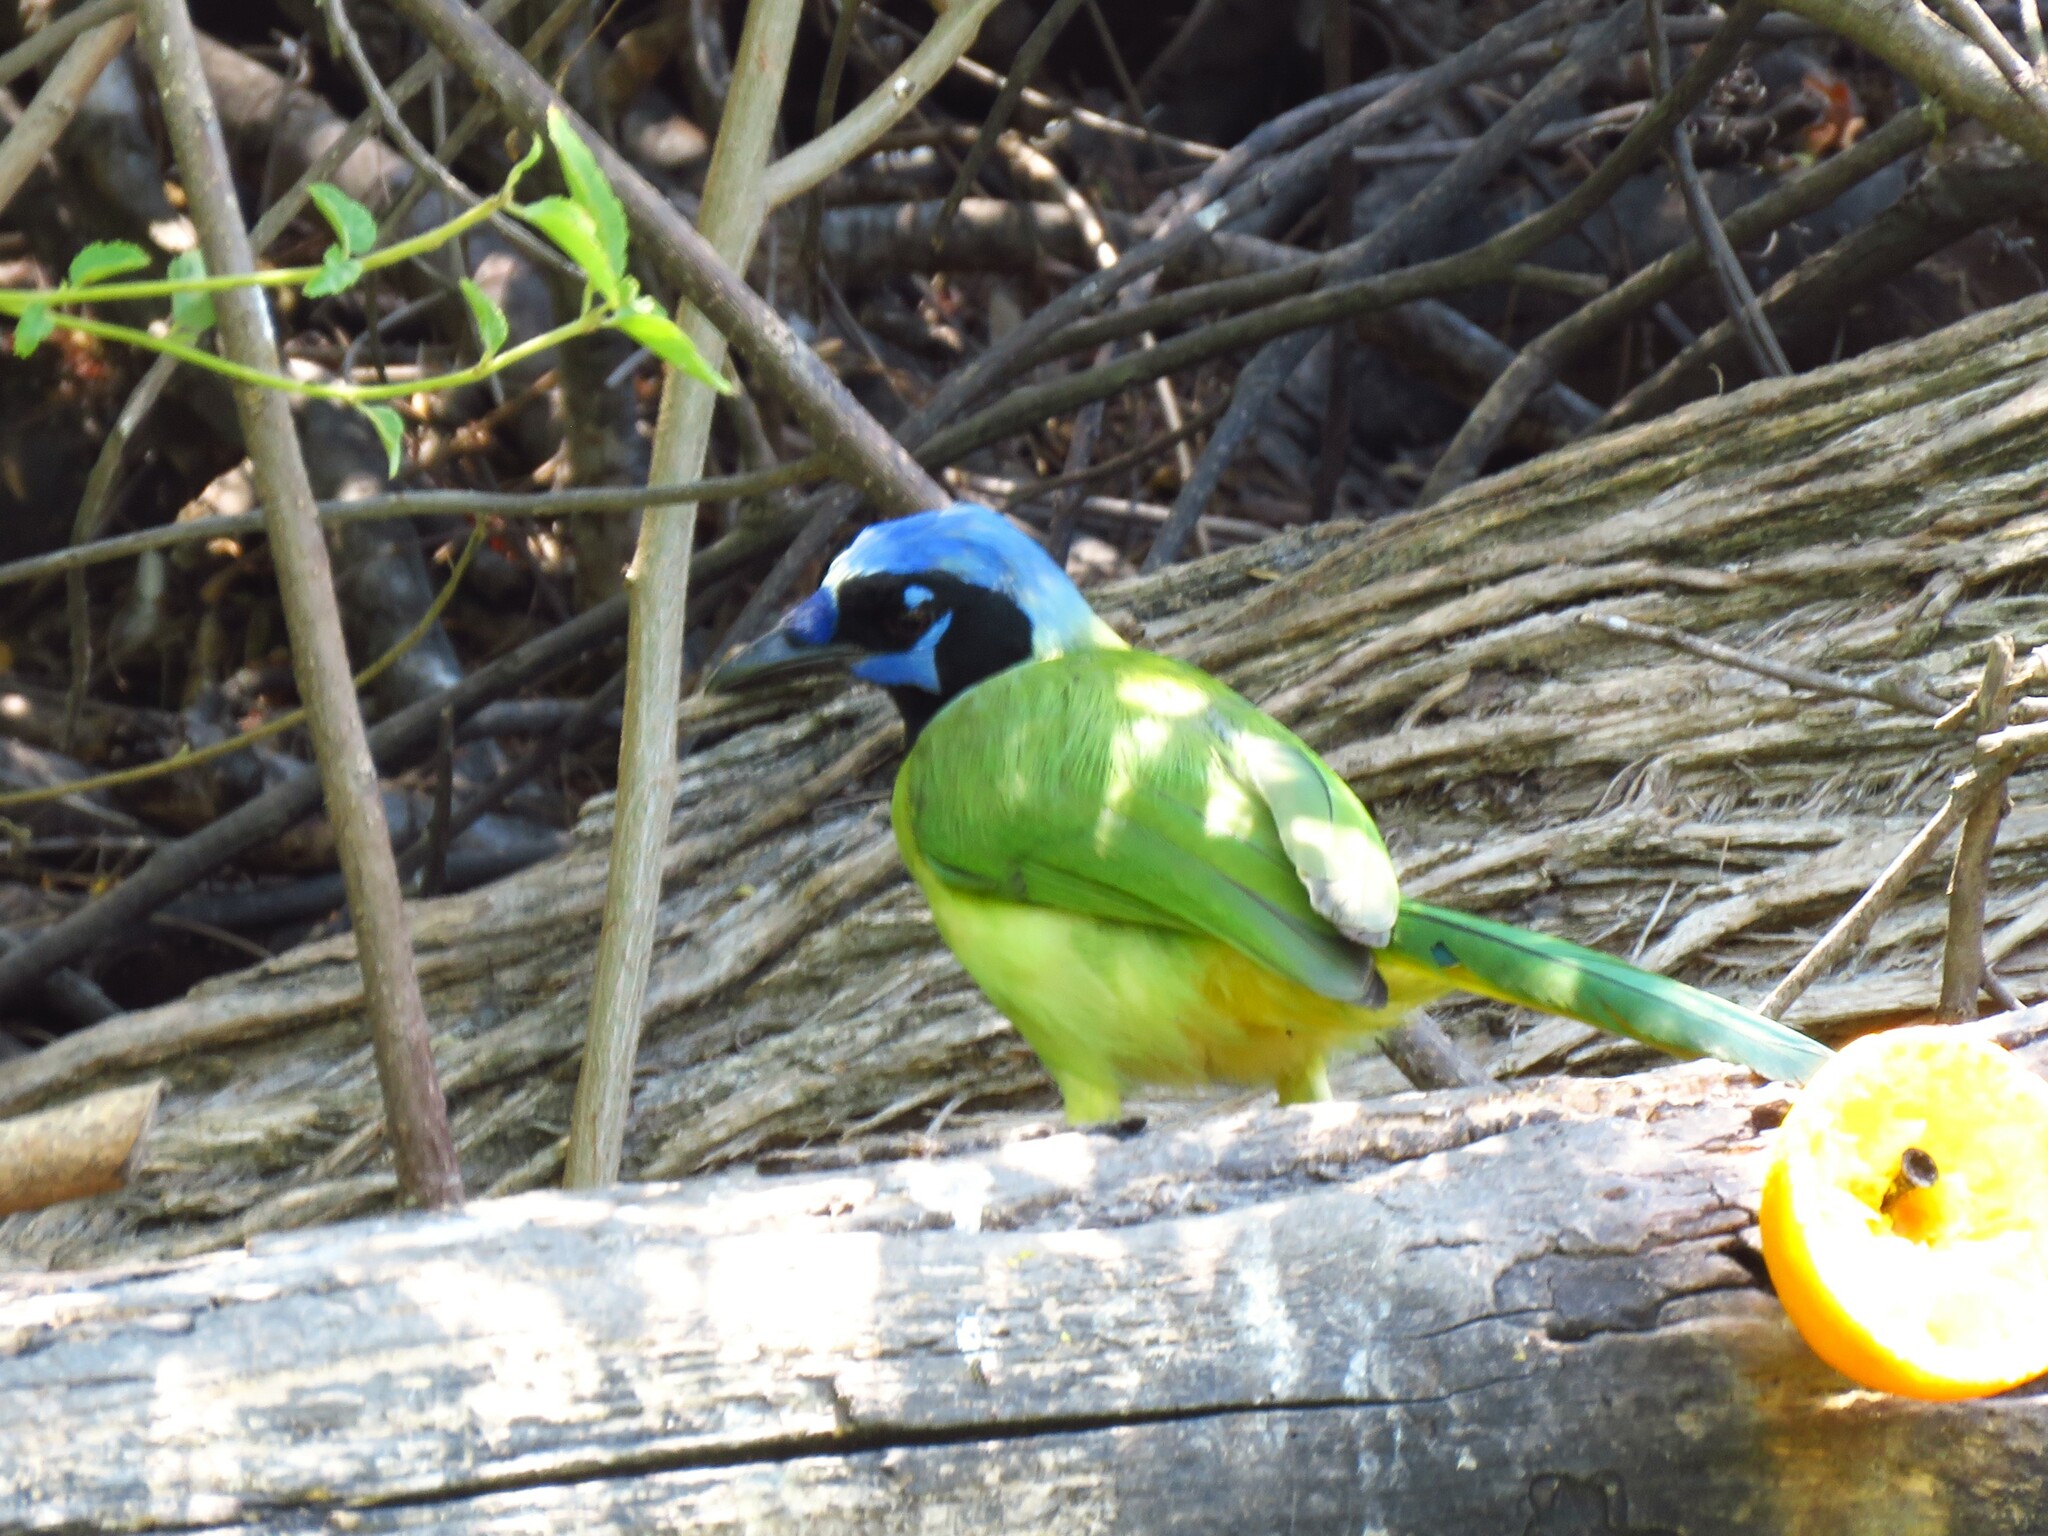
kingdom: Animalia
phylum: Chordata
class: Aves
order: Passeriformes
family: Corvidae
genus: Cyanocorax
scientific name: Cyanocorax yncas
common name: Green jay
